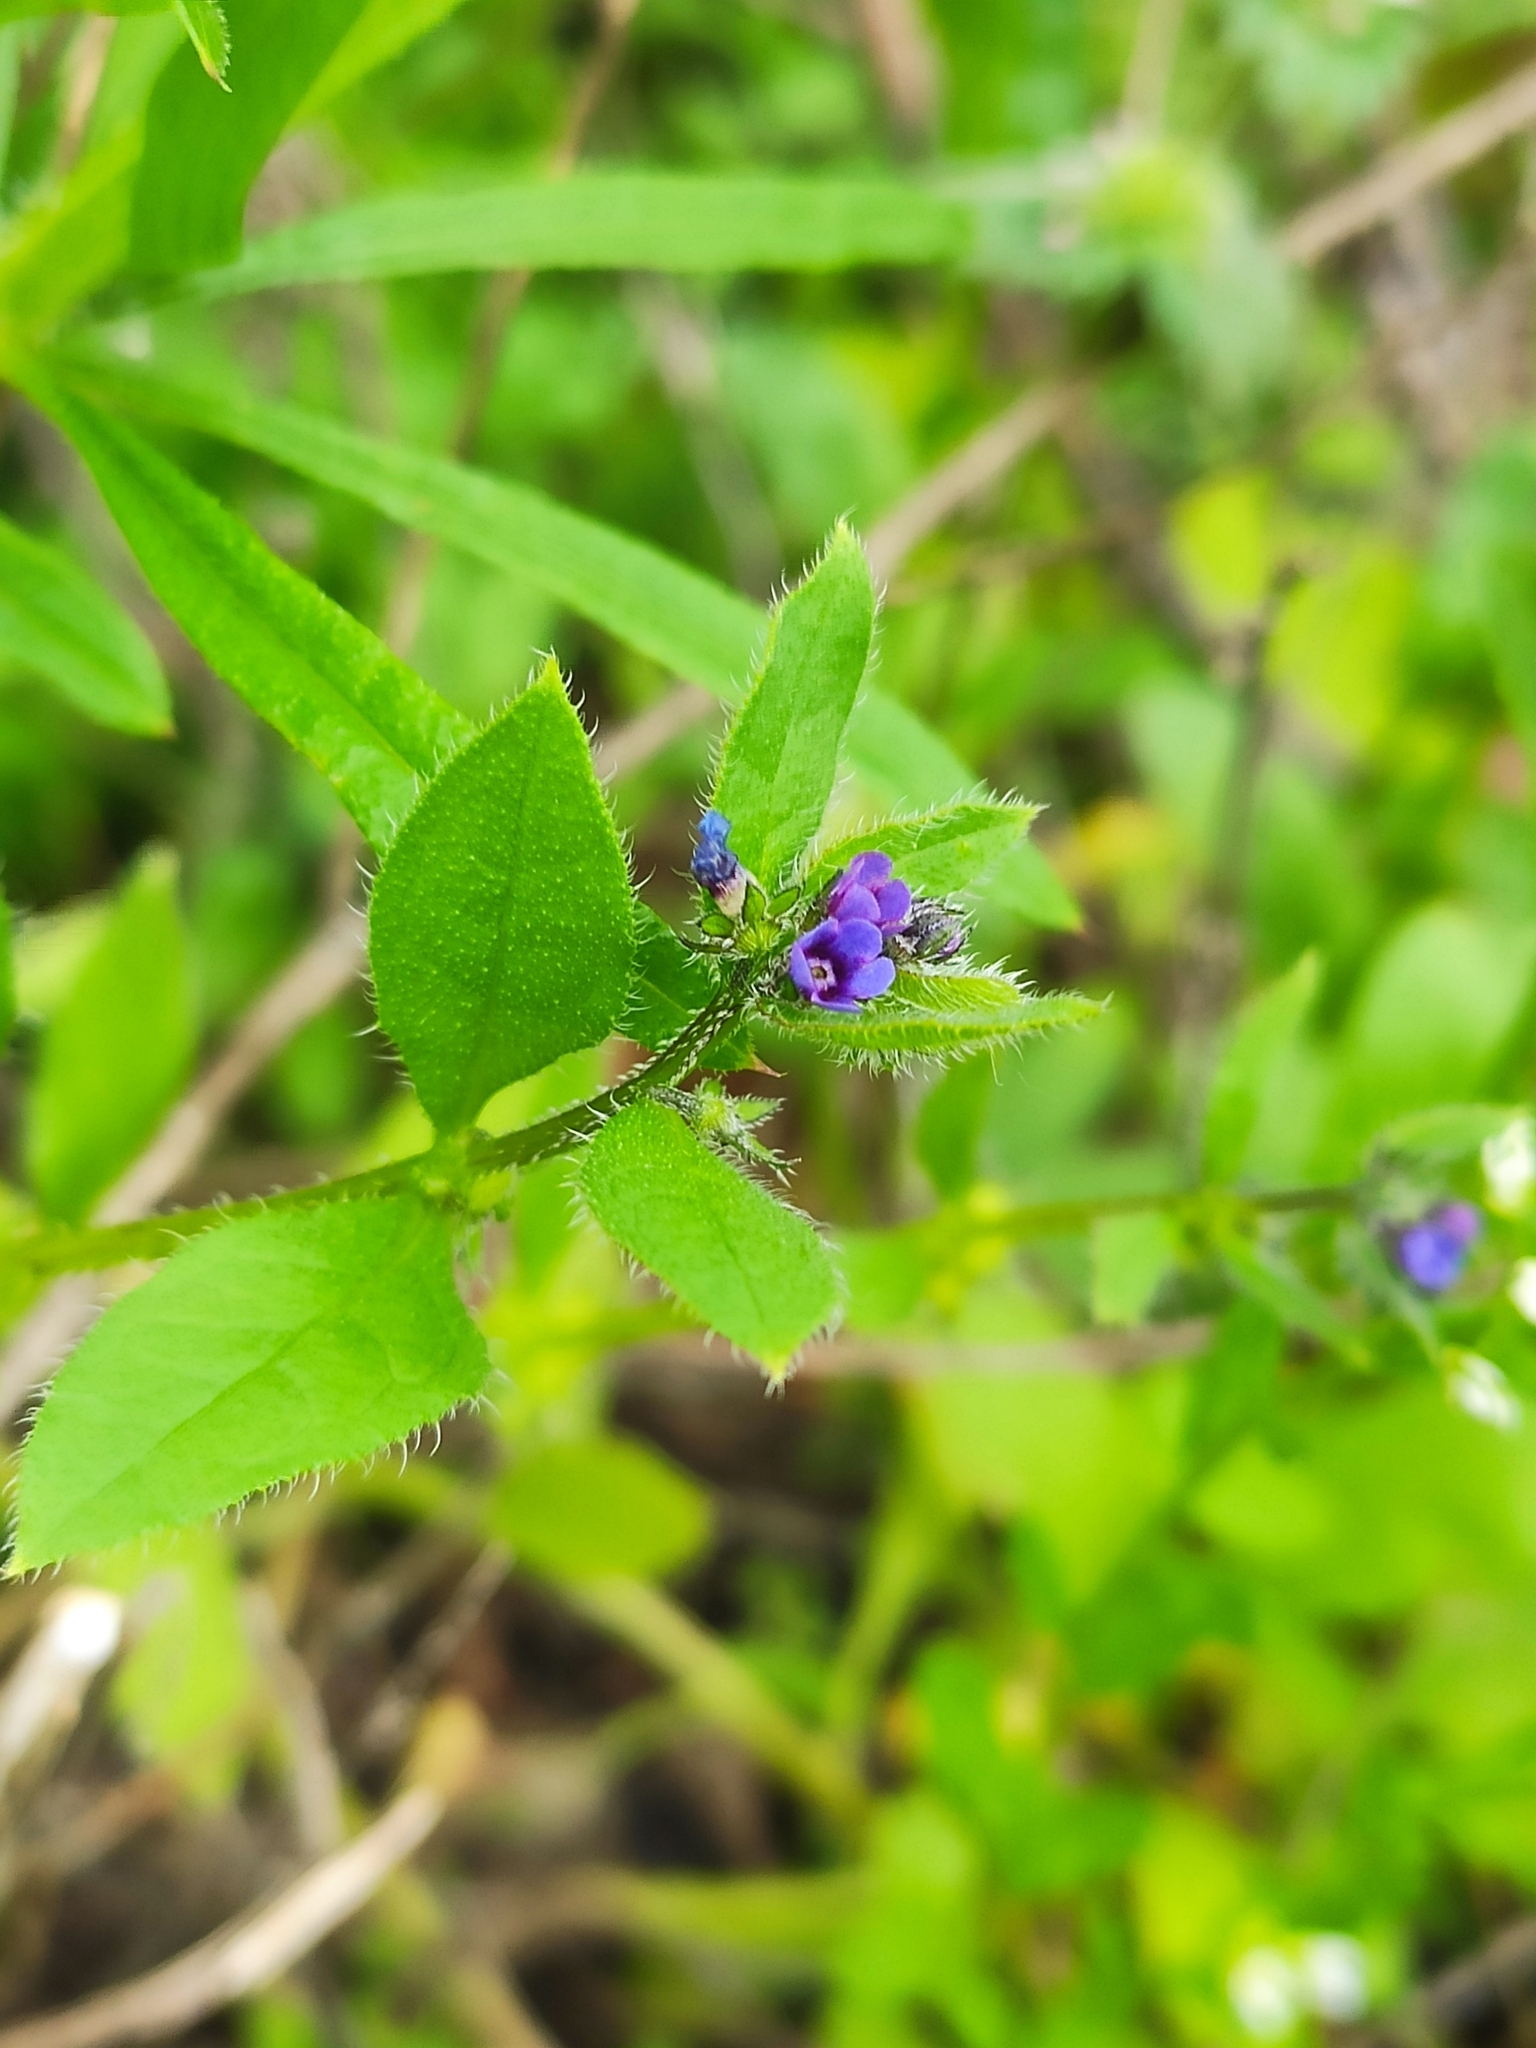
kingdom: Plantae
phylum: Tracheophyta
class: Magnoliopsida
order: Boraginales
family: Boraginaceae
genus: Asperugo
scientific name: Asperugo procumbens
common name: Madwort
